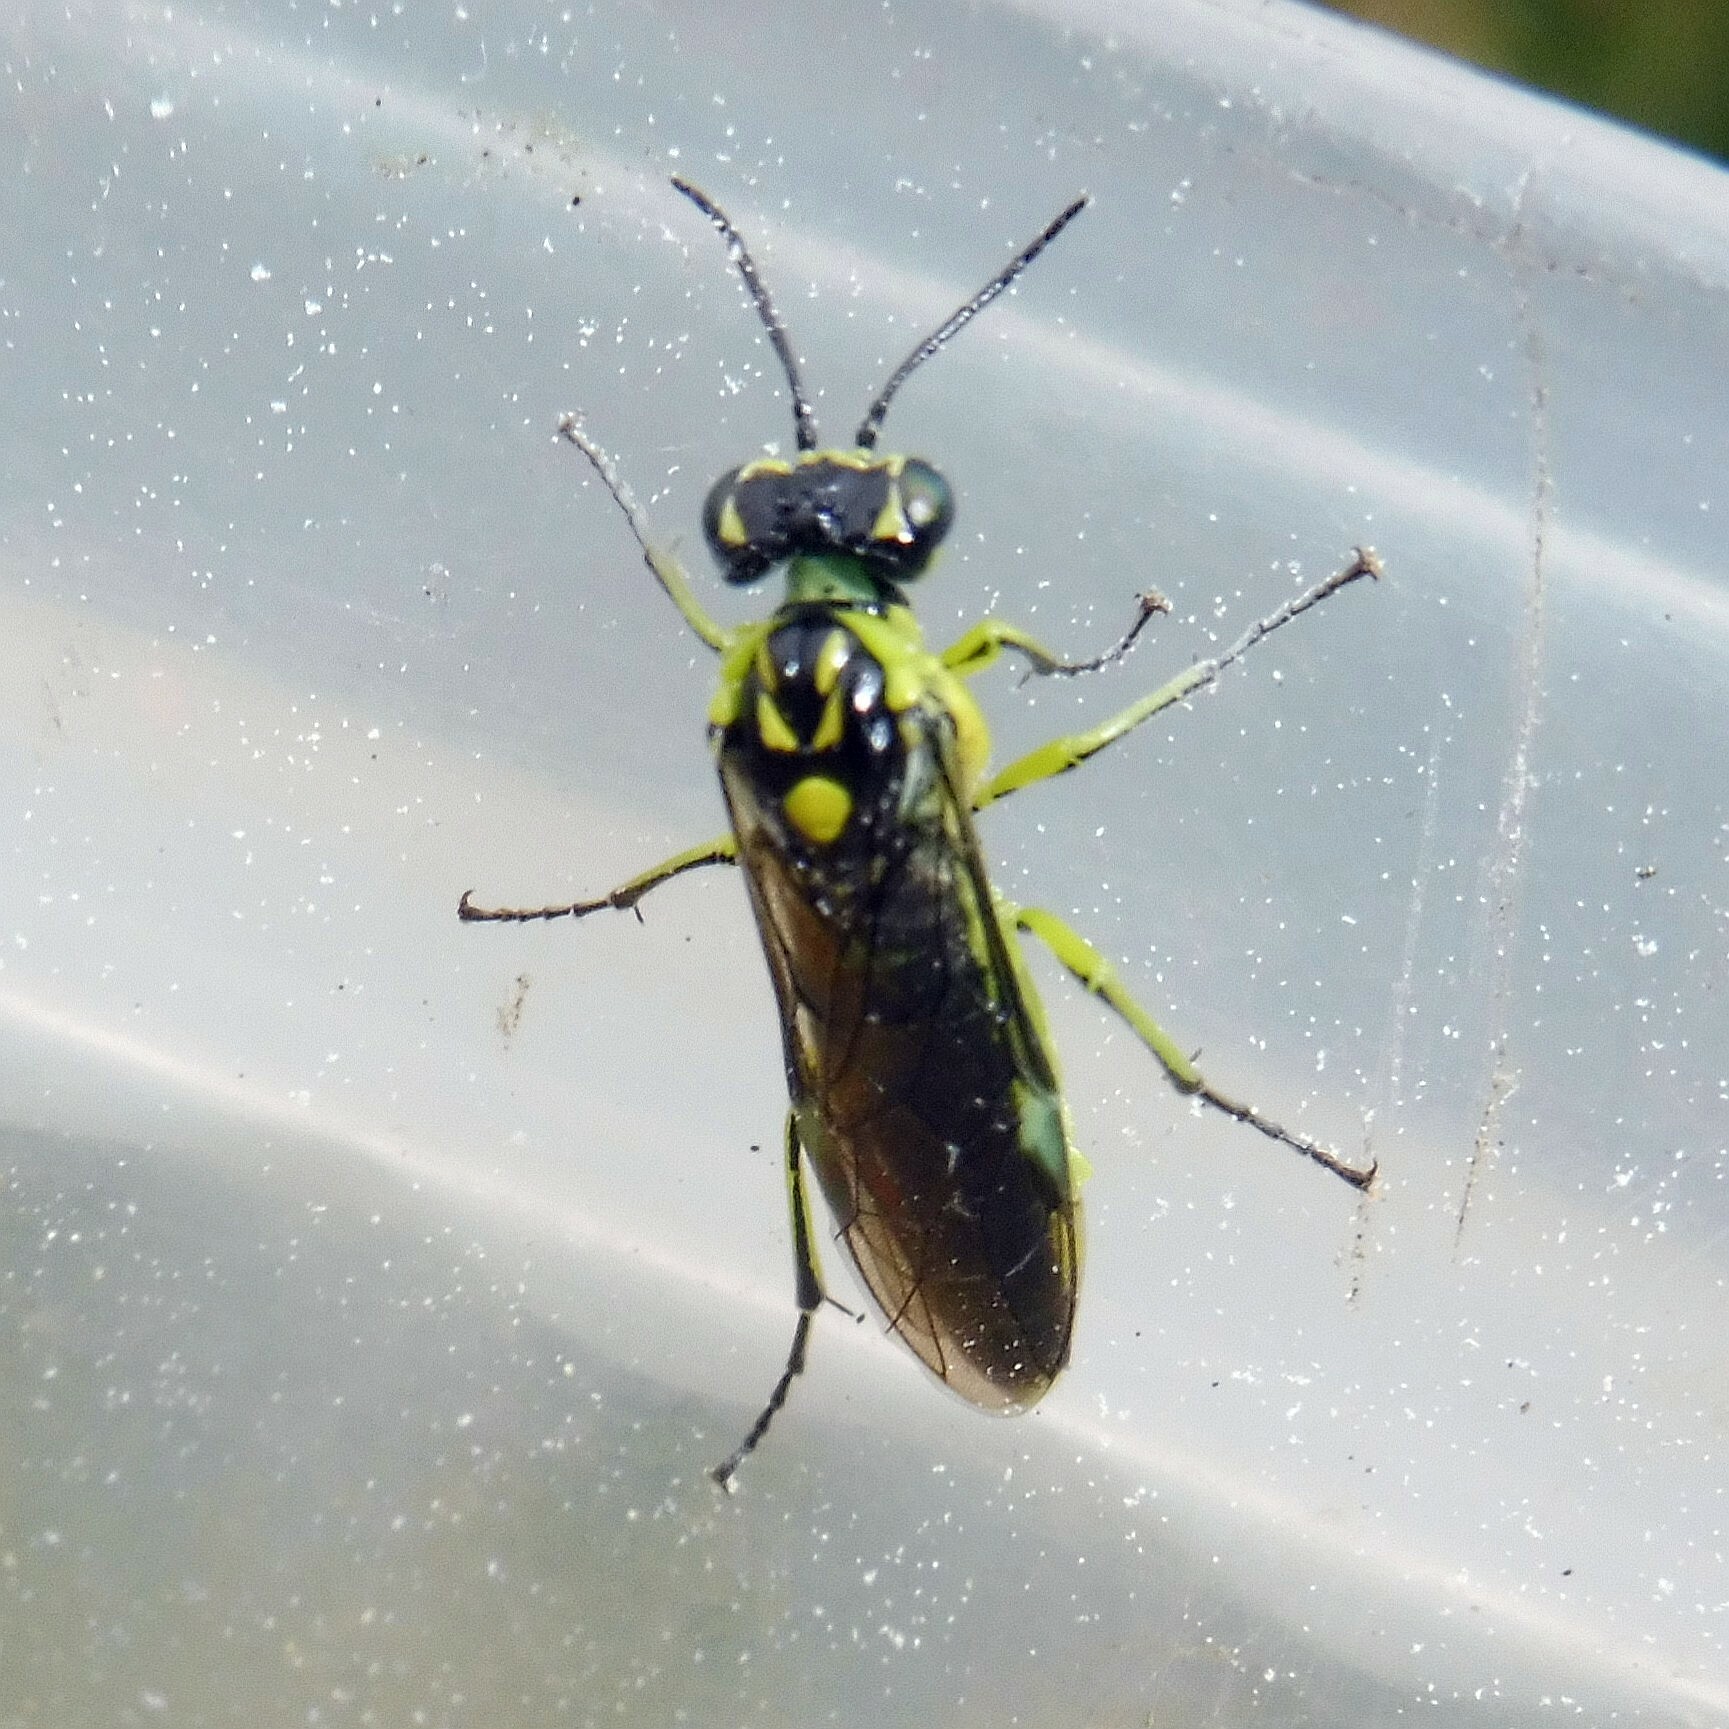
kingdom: Animalia
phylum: Arthropoda
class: Insecta
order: Hymenoptera
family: Tenthredinidae
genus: Rhogogaster
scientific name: Rhogogaster genistae
